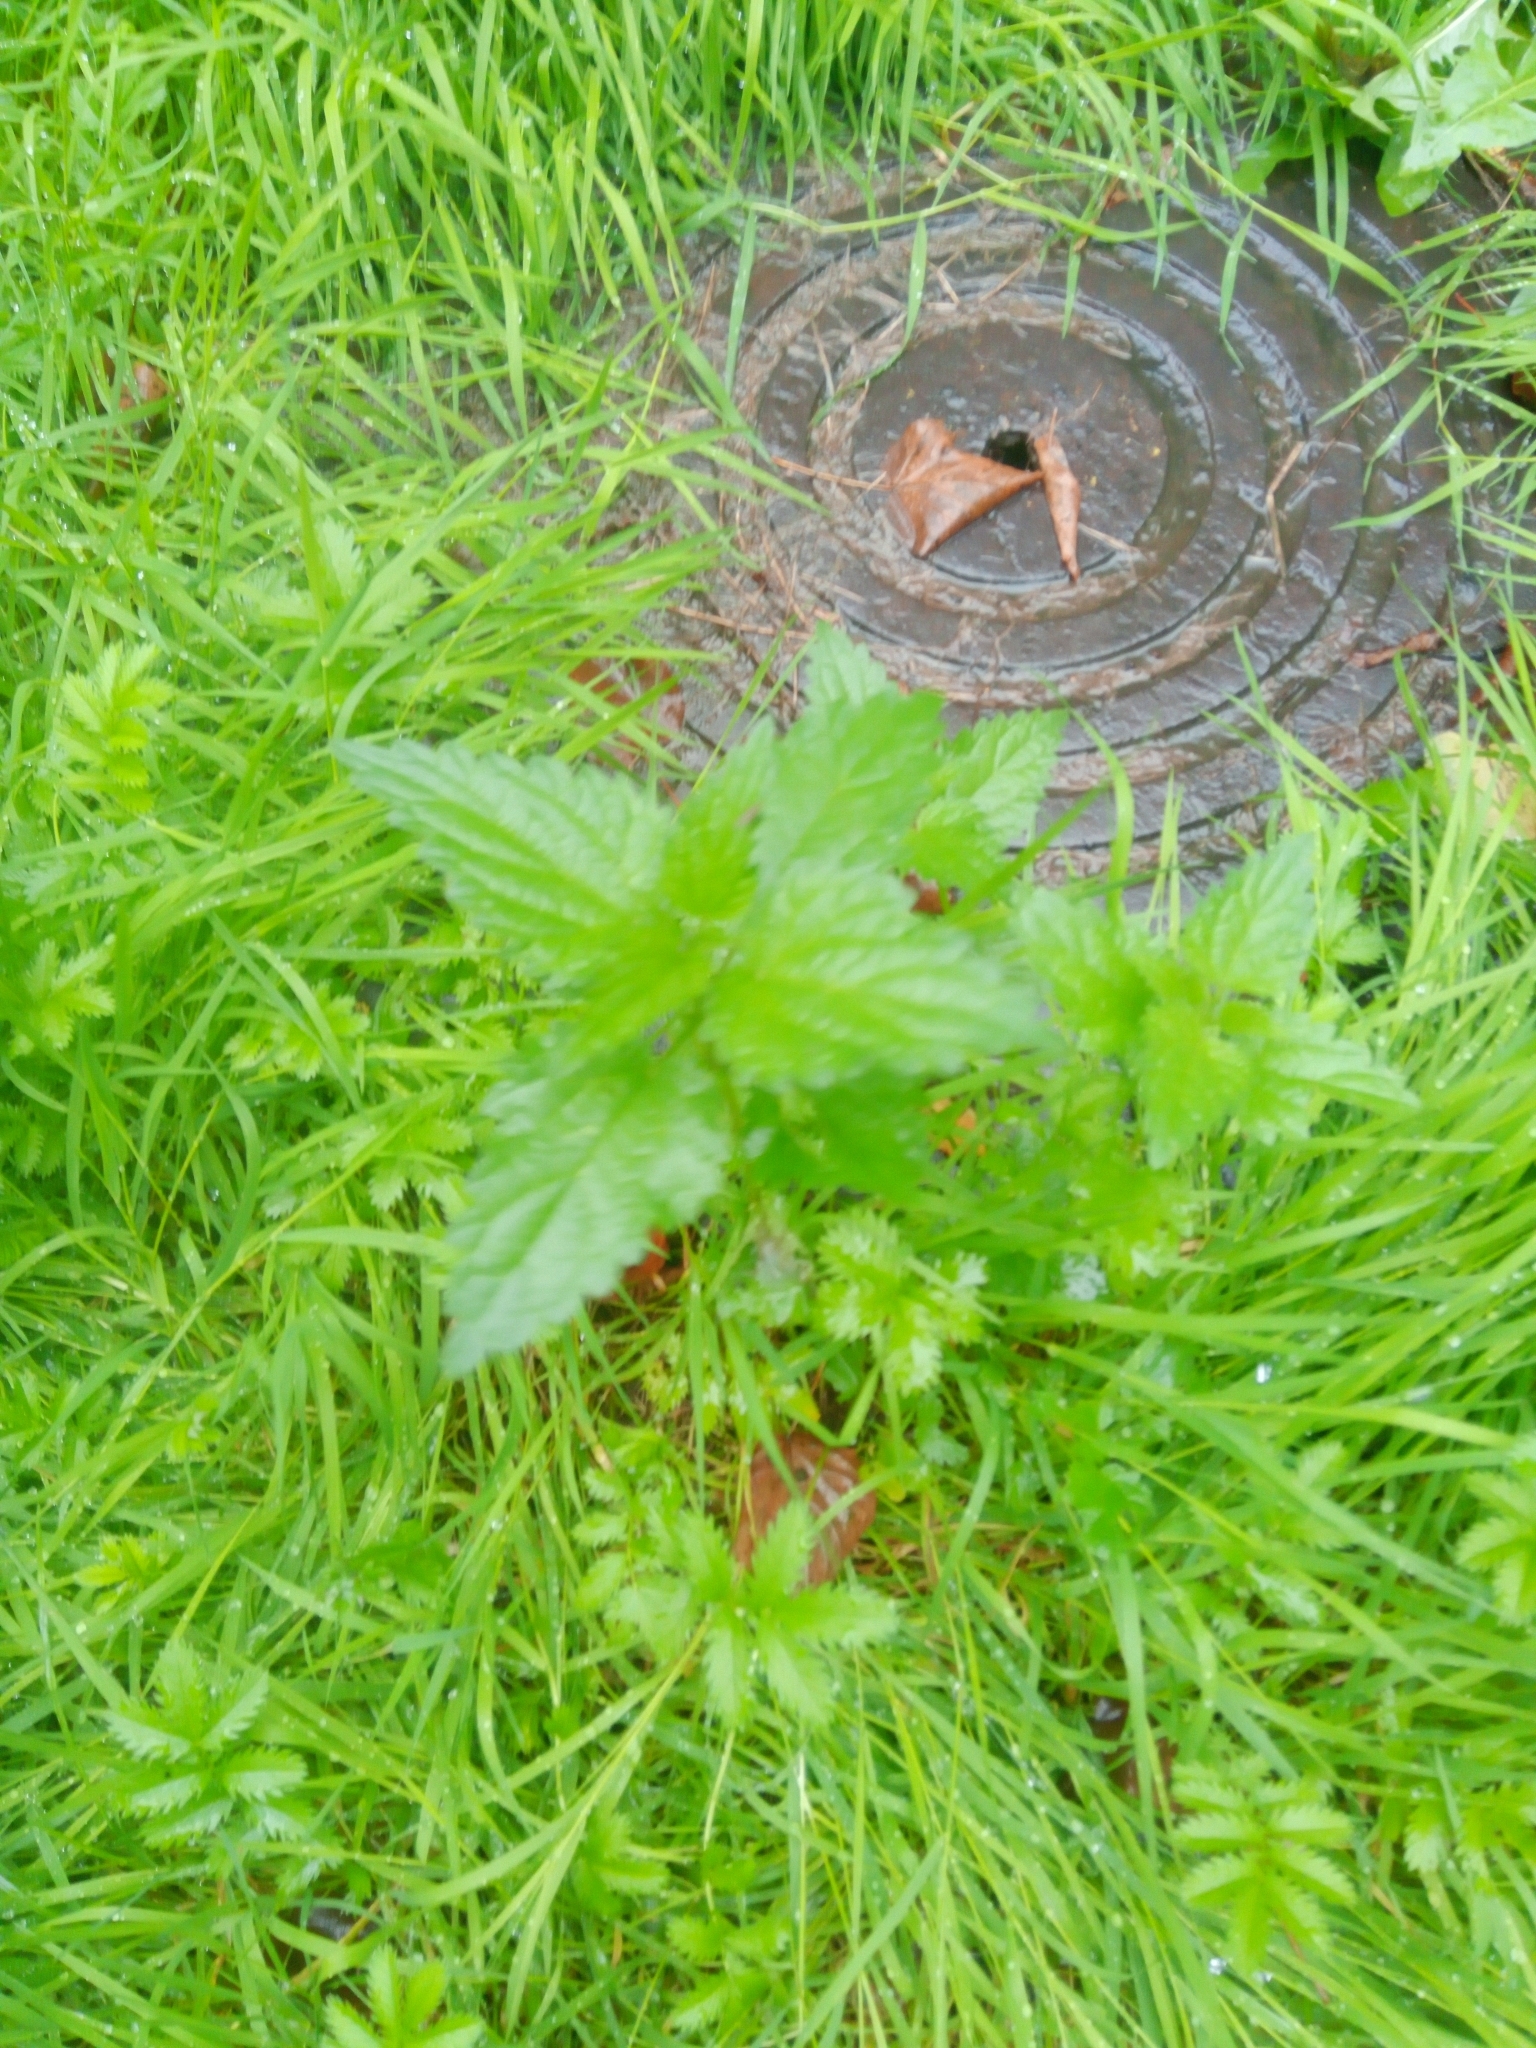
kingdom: Plantae
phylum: Tracheophyta
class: Magnoliopsida
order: Rosales
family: Urticaceae
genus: Urtica
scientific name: Urtica dioica
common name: Common nettle
